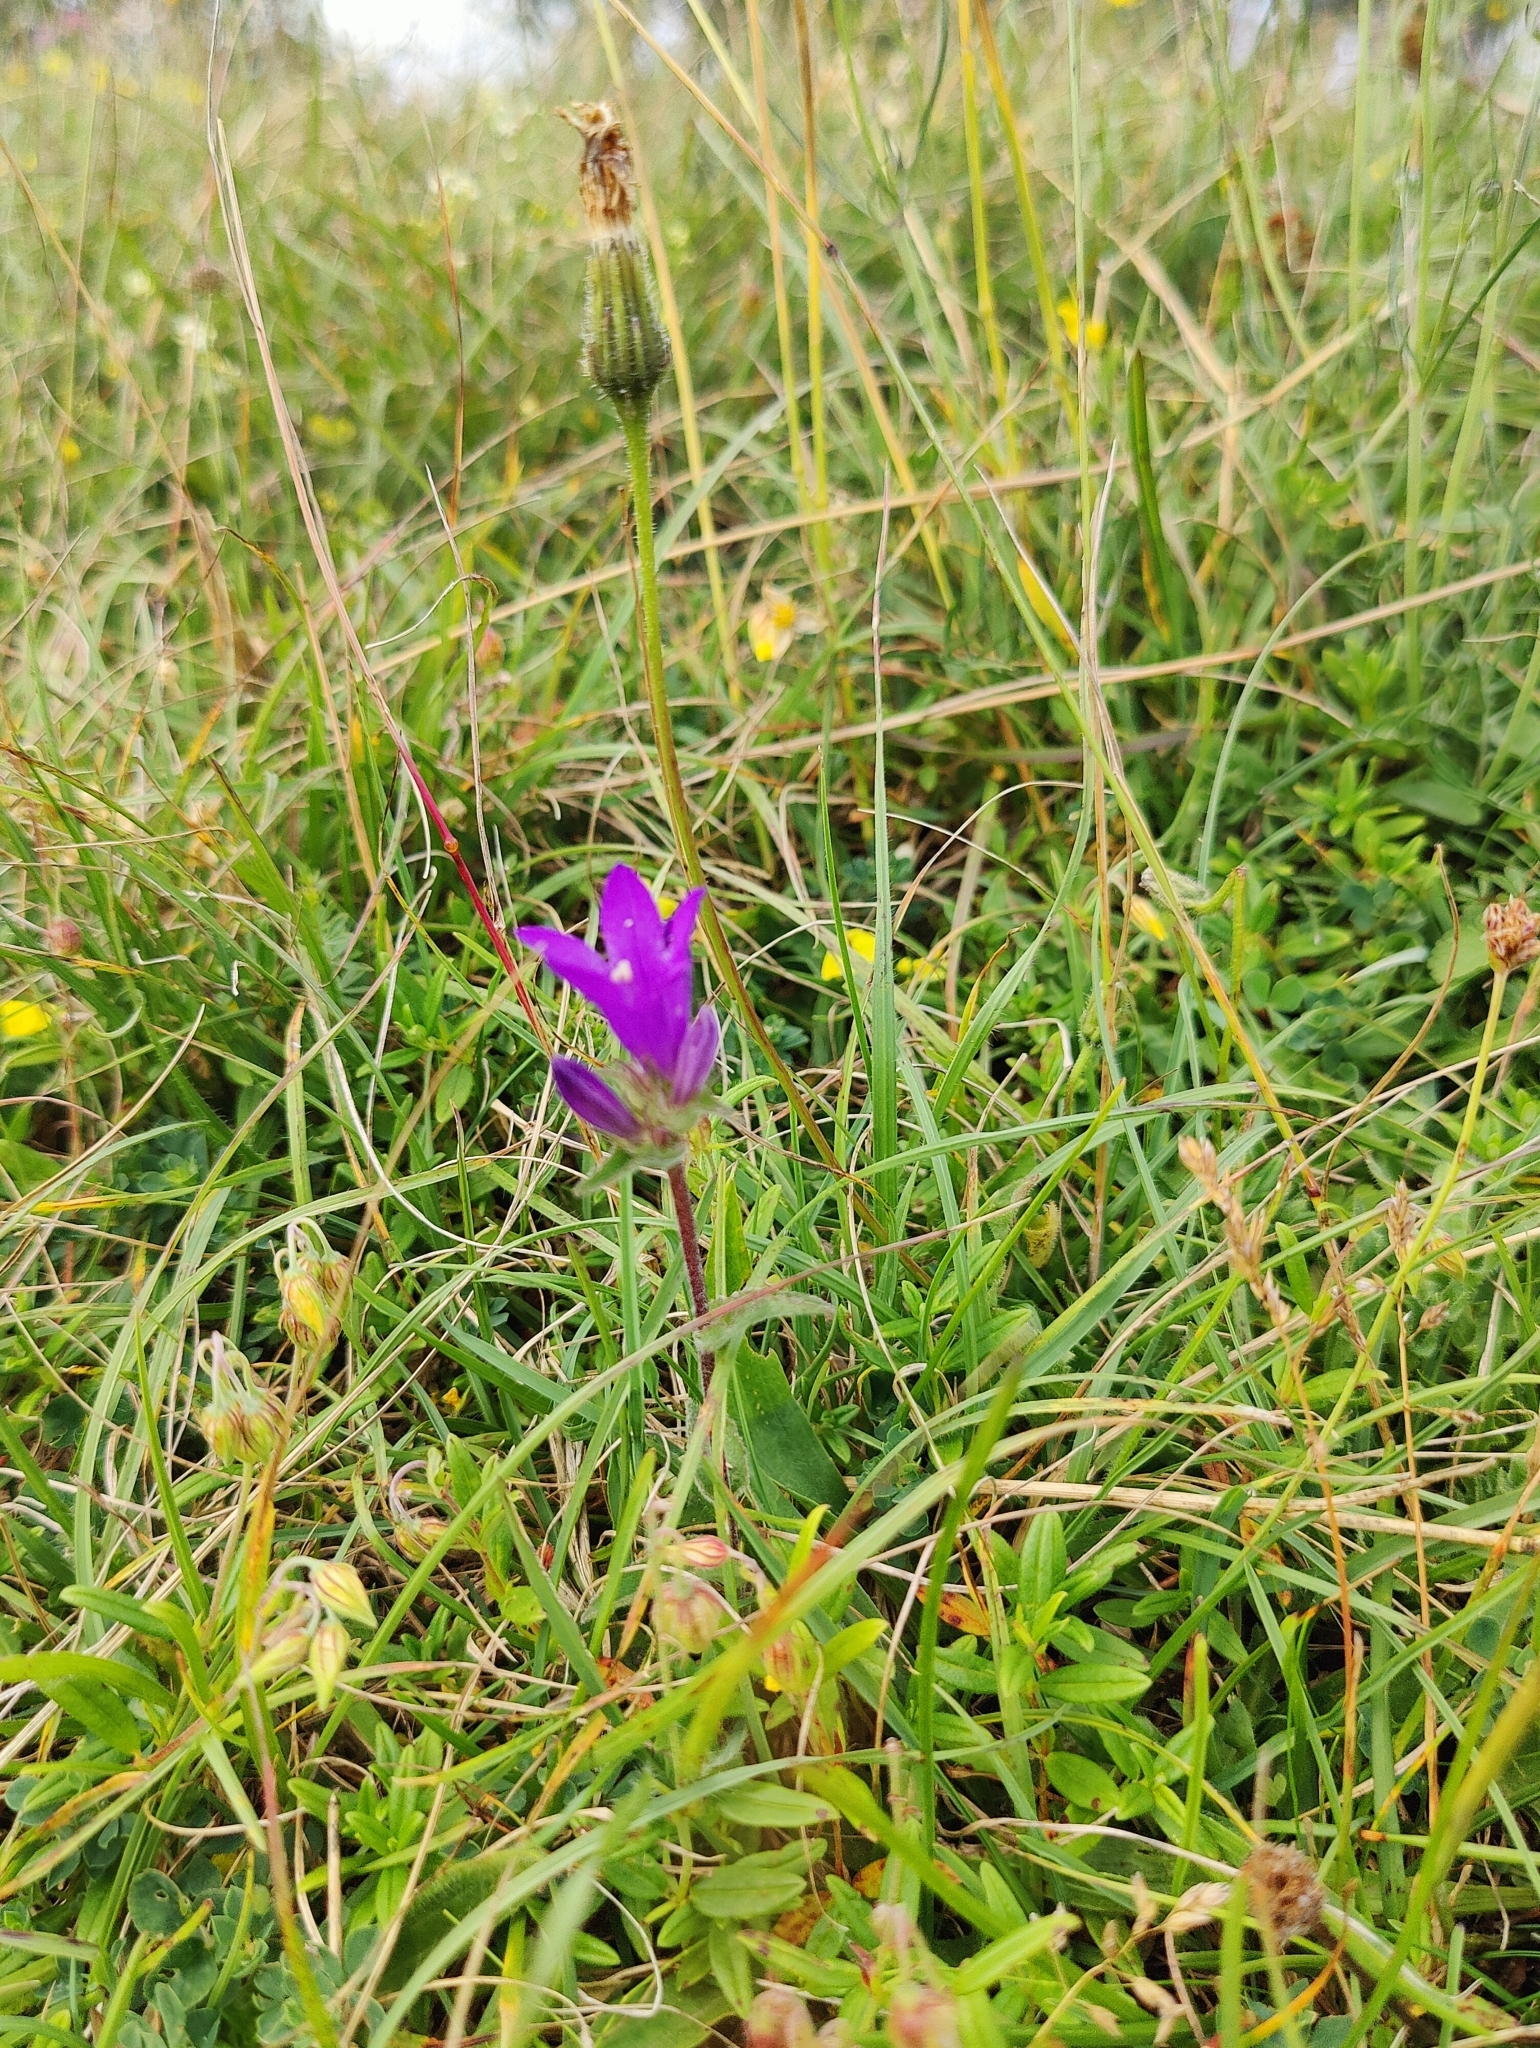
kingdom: Plantae
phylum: Tracheophyta
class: Magnoliopsida
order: Asterales
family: Campanulaceae
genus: Campanula
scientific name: Campanula glomerata
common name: Clustered bellflower
